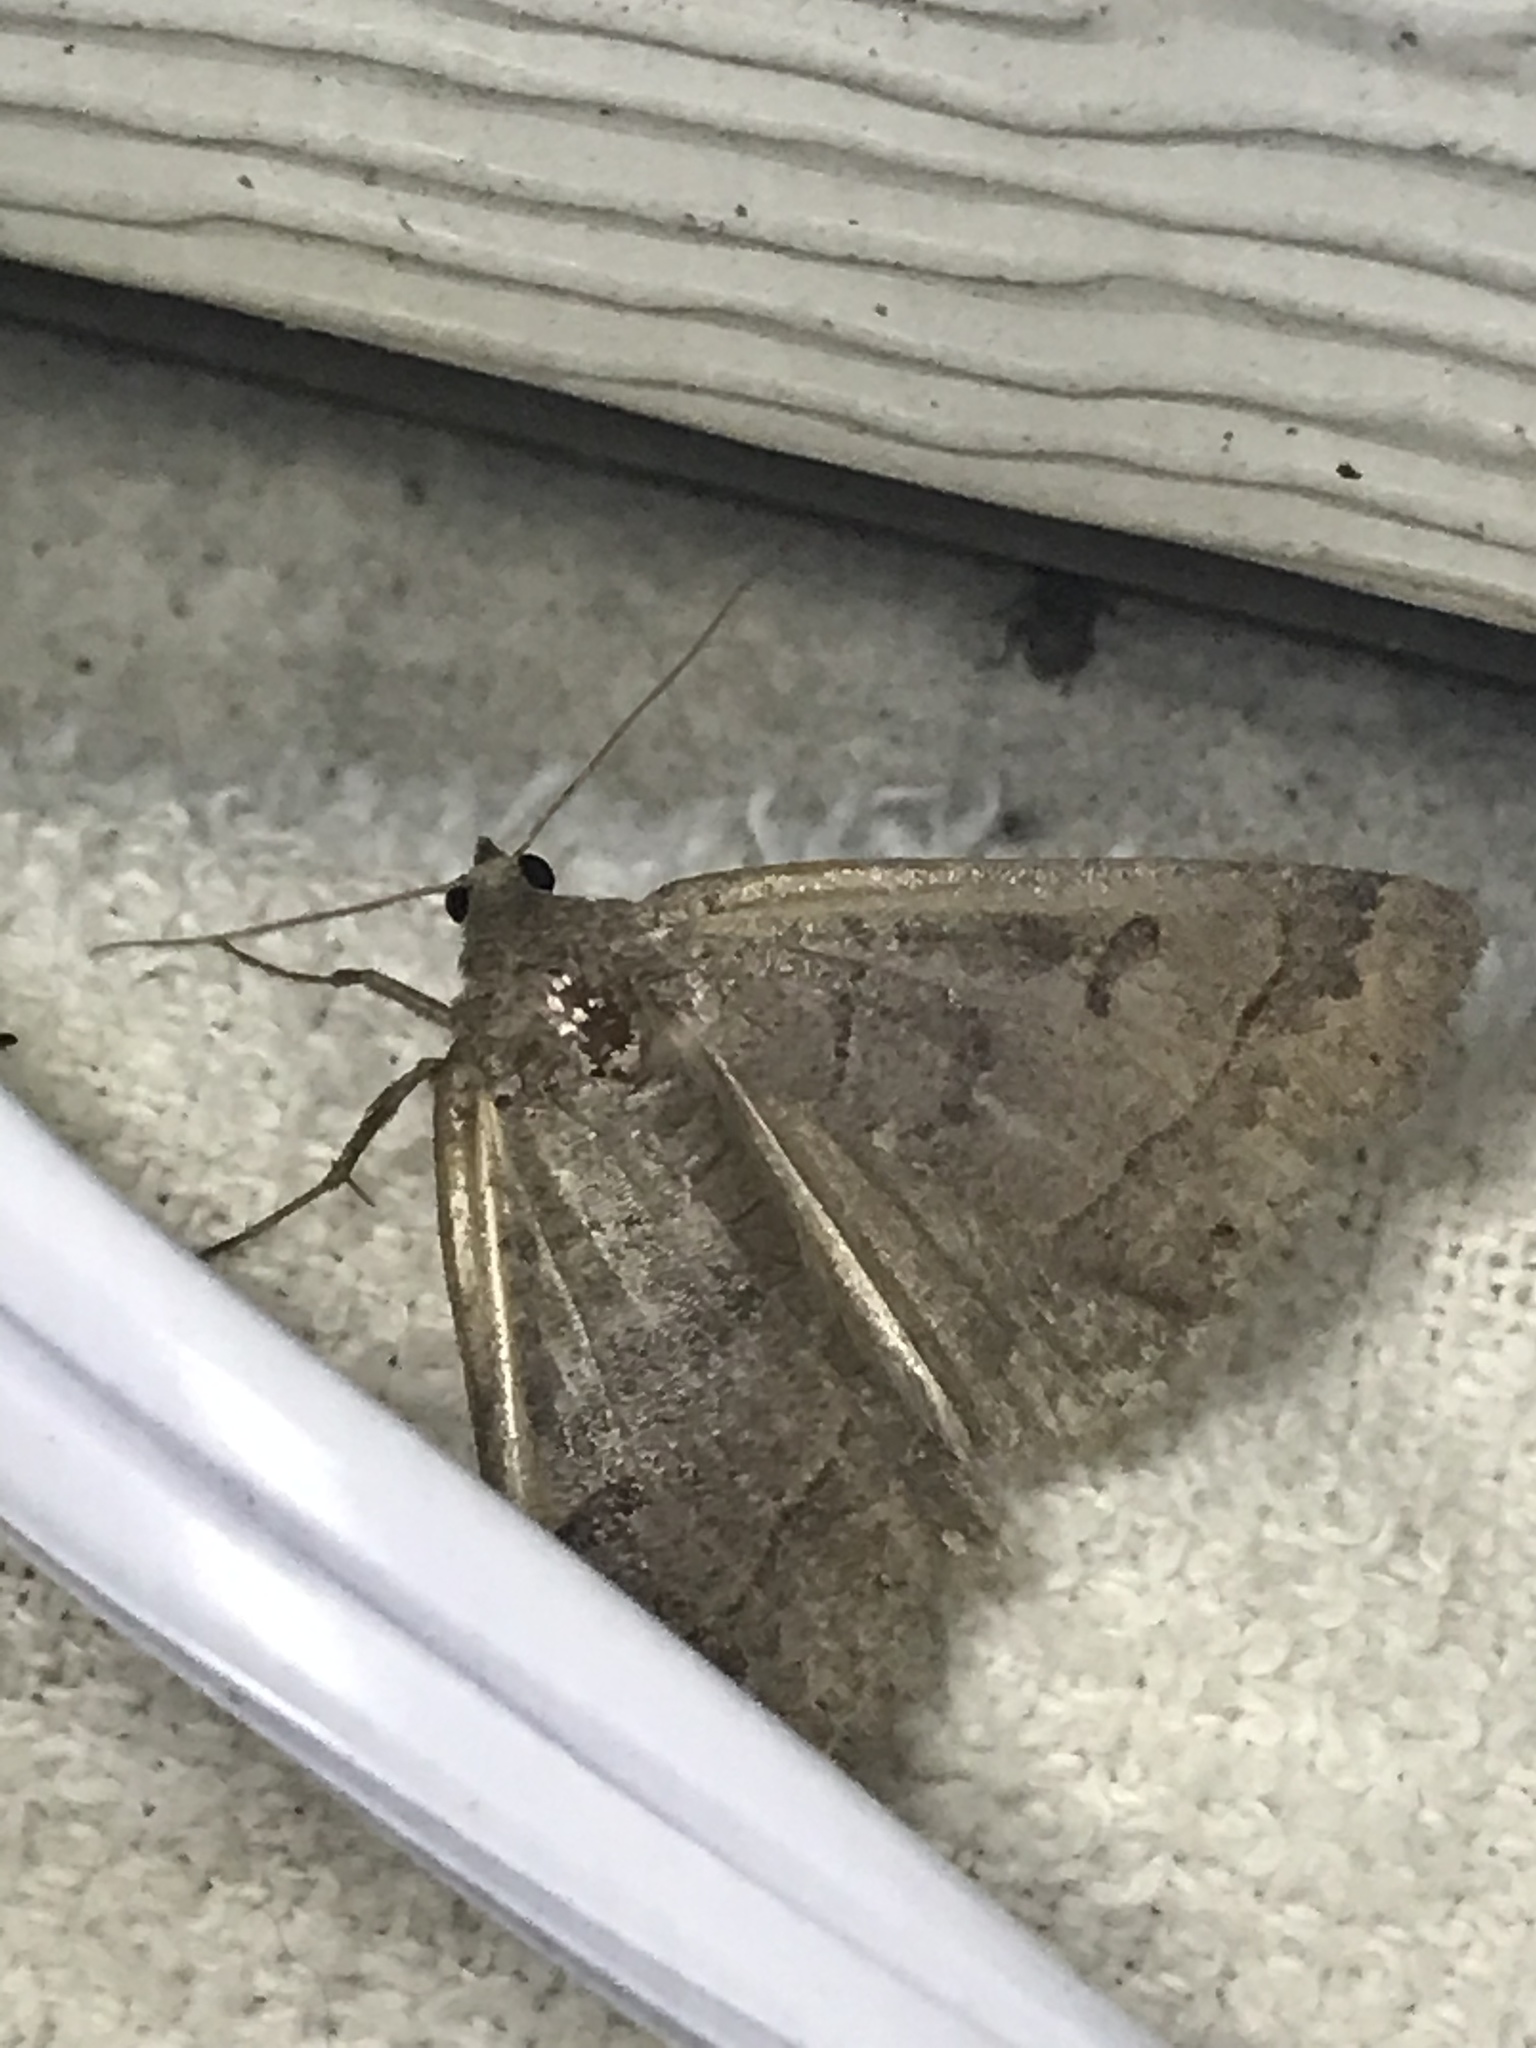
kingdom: Animalia
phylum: Arthropoda
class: Insecta
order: Lepidoptera
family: Erebidae
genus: Phoberia
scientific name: Phoberia atomaris
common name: Common oak moth
